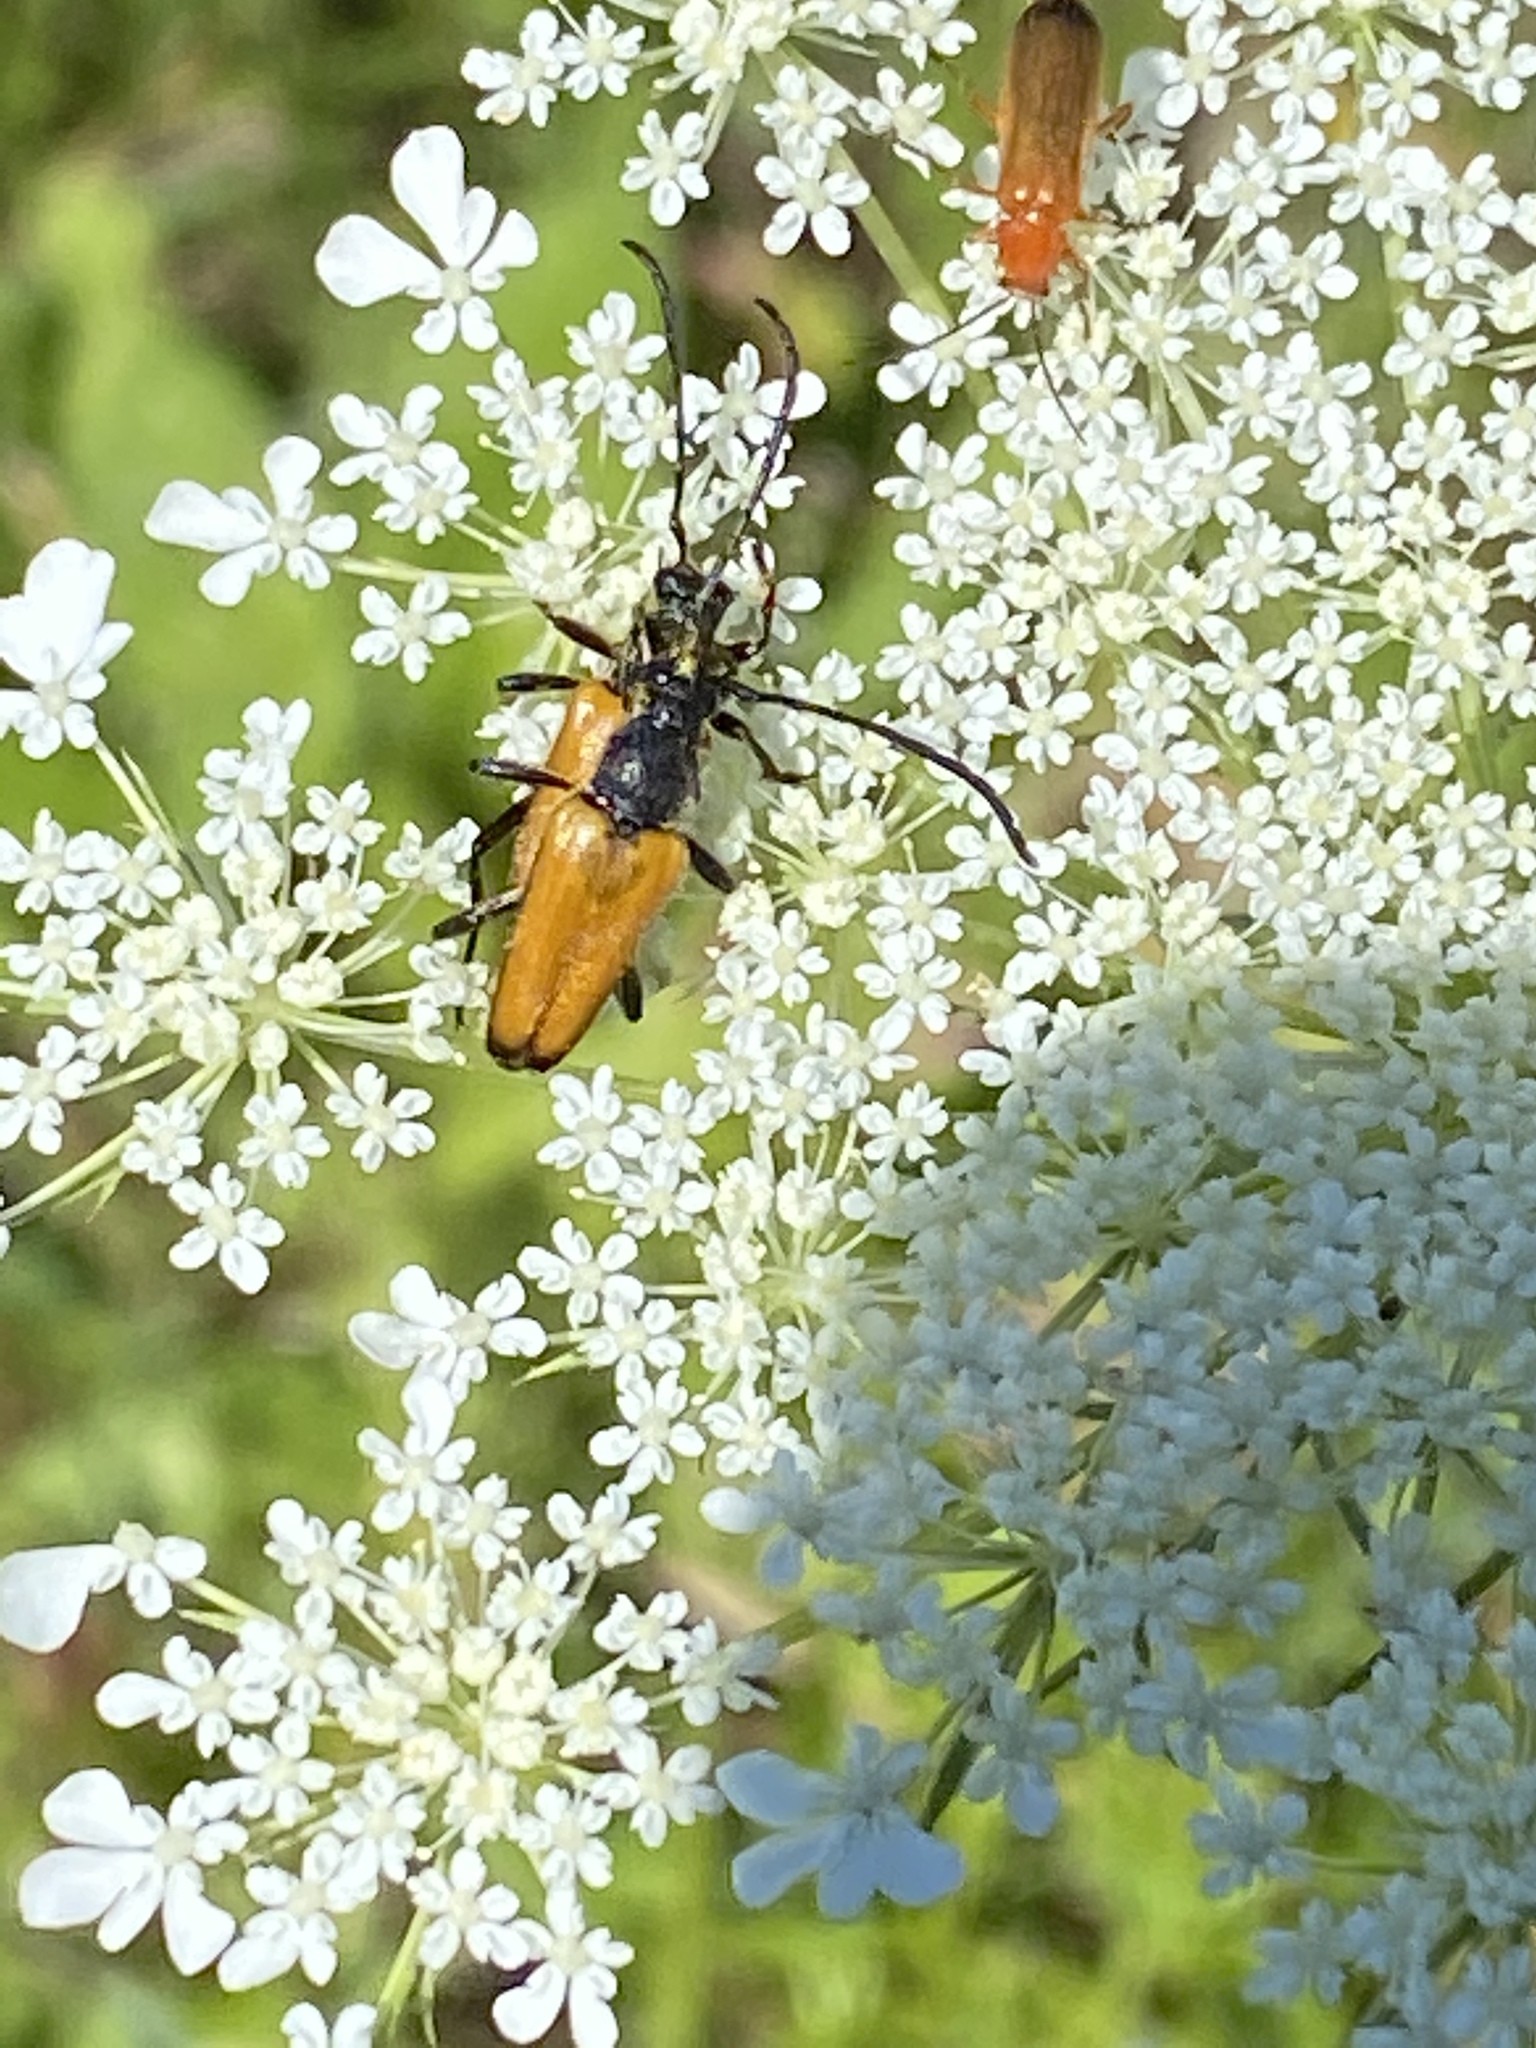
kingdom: Animalia
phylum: Arthropoda
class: Insecta
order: Coleoptera
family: Cerambycidae
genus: Paracorymbia
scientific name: Paracorymbia fulva
